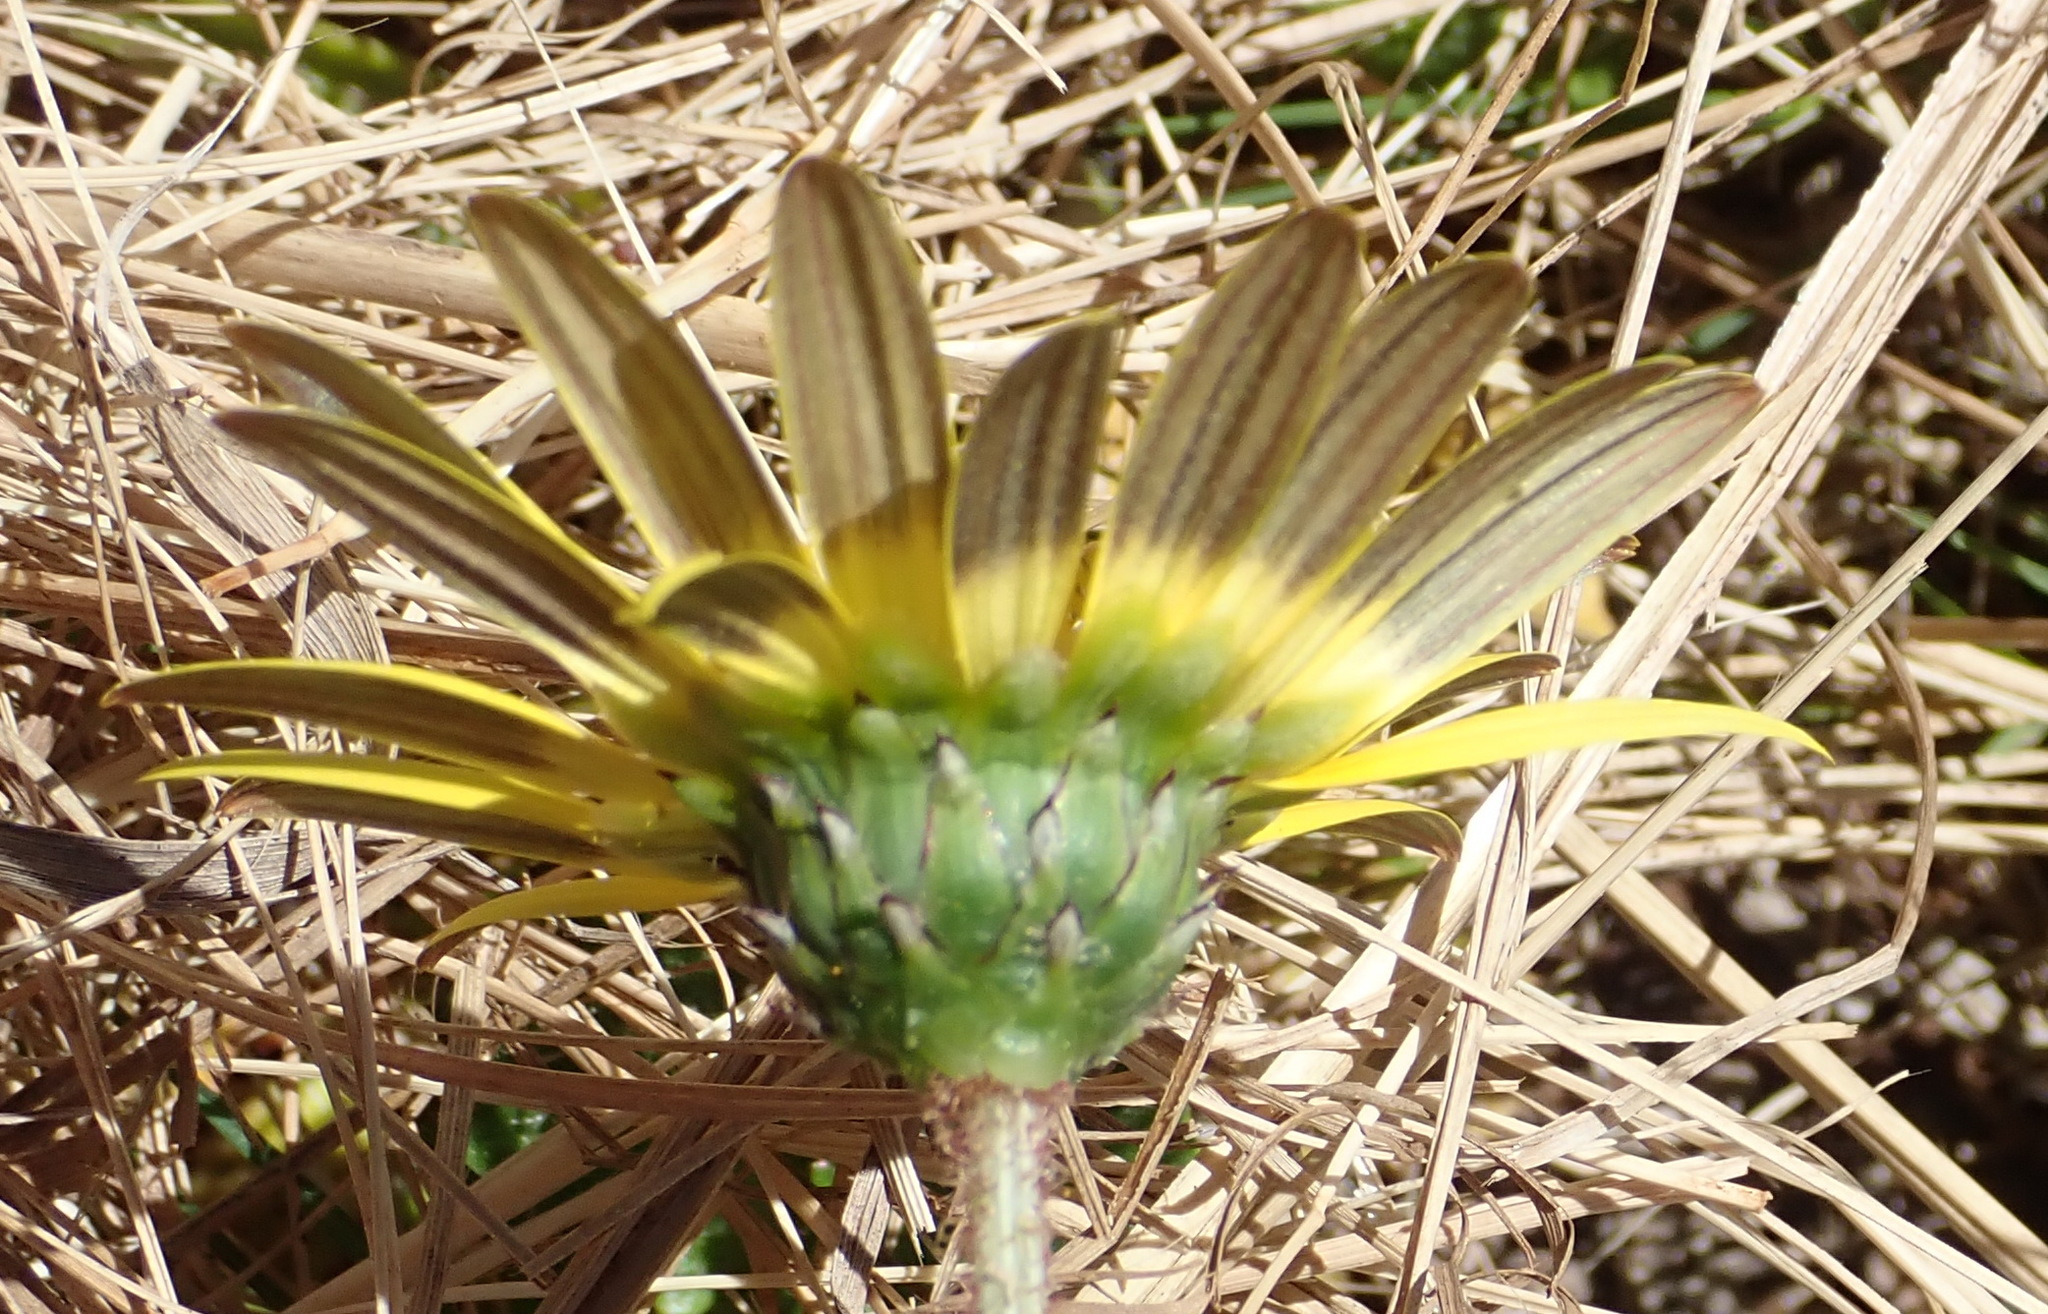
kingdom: Plantae
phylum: Tracheophyta
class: Magnoliopsida
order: Asterales
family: Asteraceae
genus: Arctotheca
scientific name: Arctotheca prostrata
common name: Capeweed
